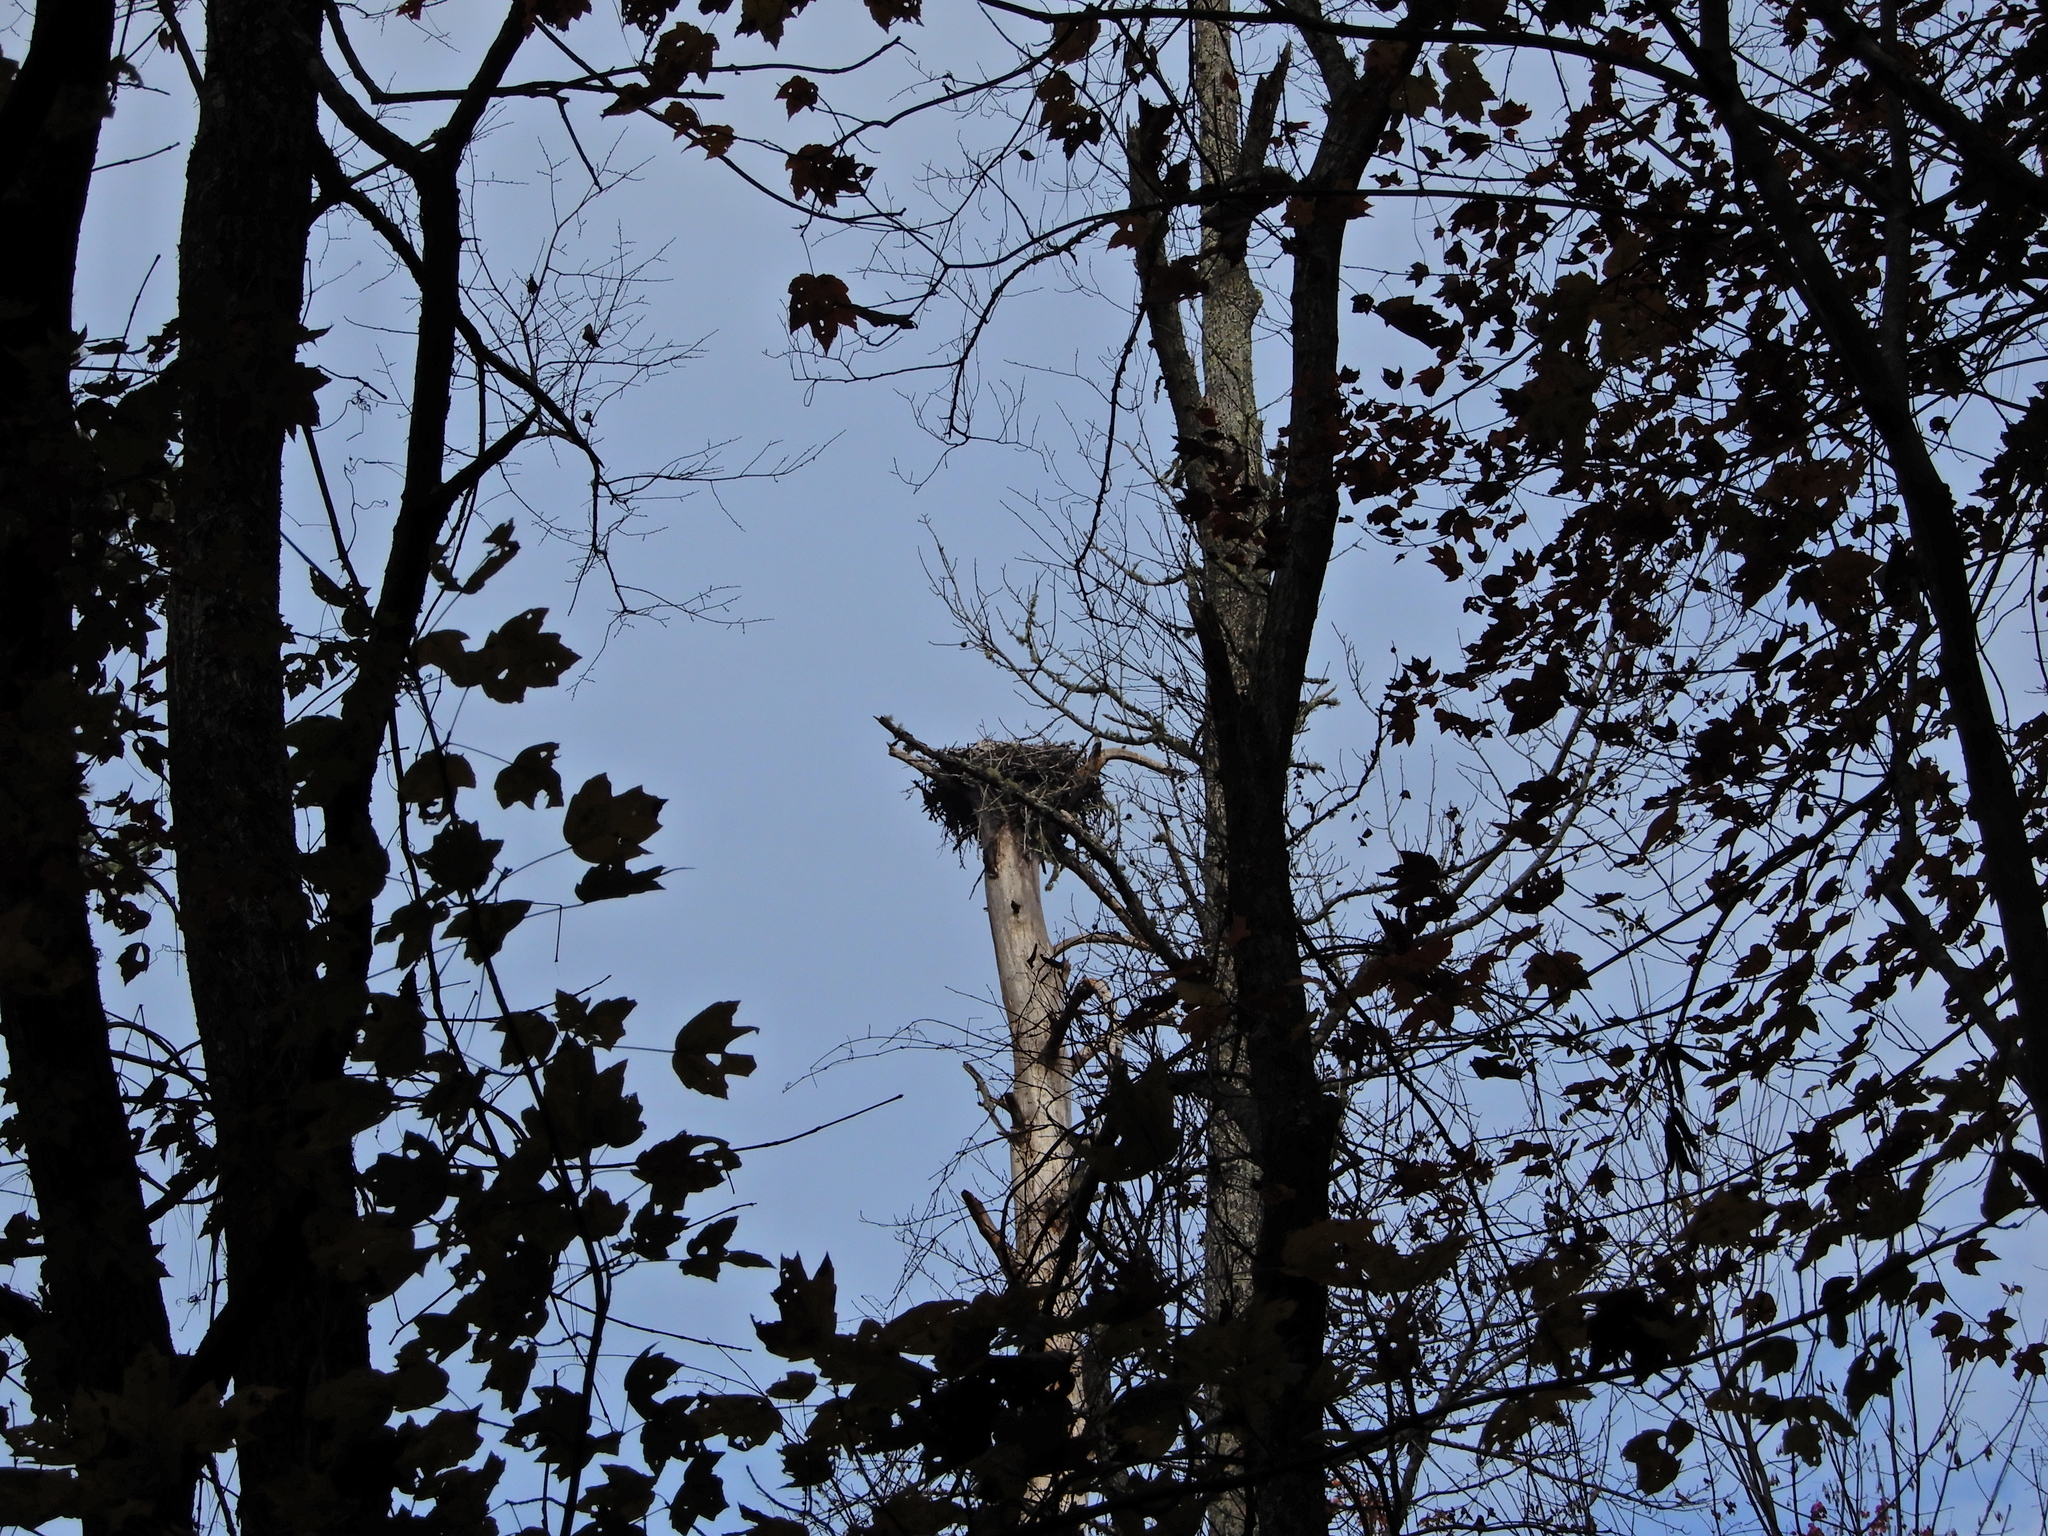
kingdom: Animalia
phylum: Chordata
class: Aves
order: Accipitriformes
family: Pandionidae
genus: Pandion
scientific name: Pandion haliaetus
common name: Osprey
